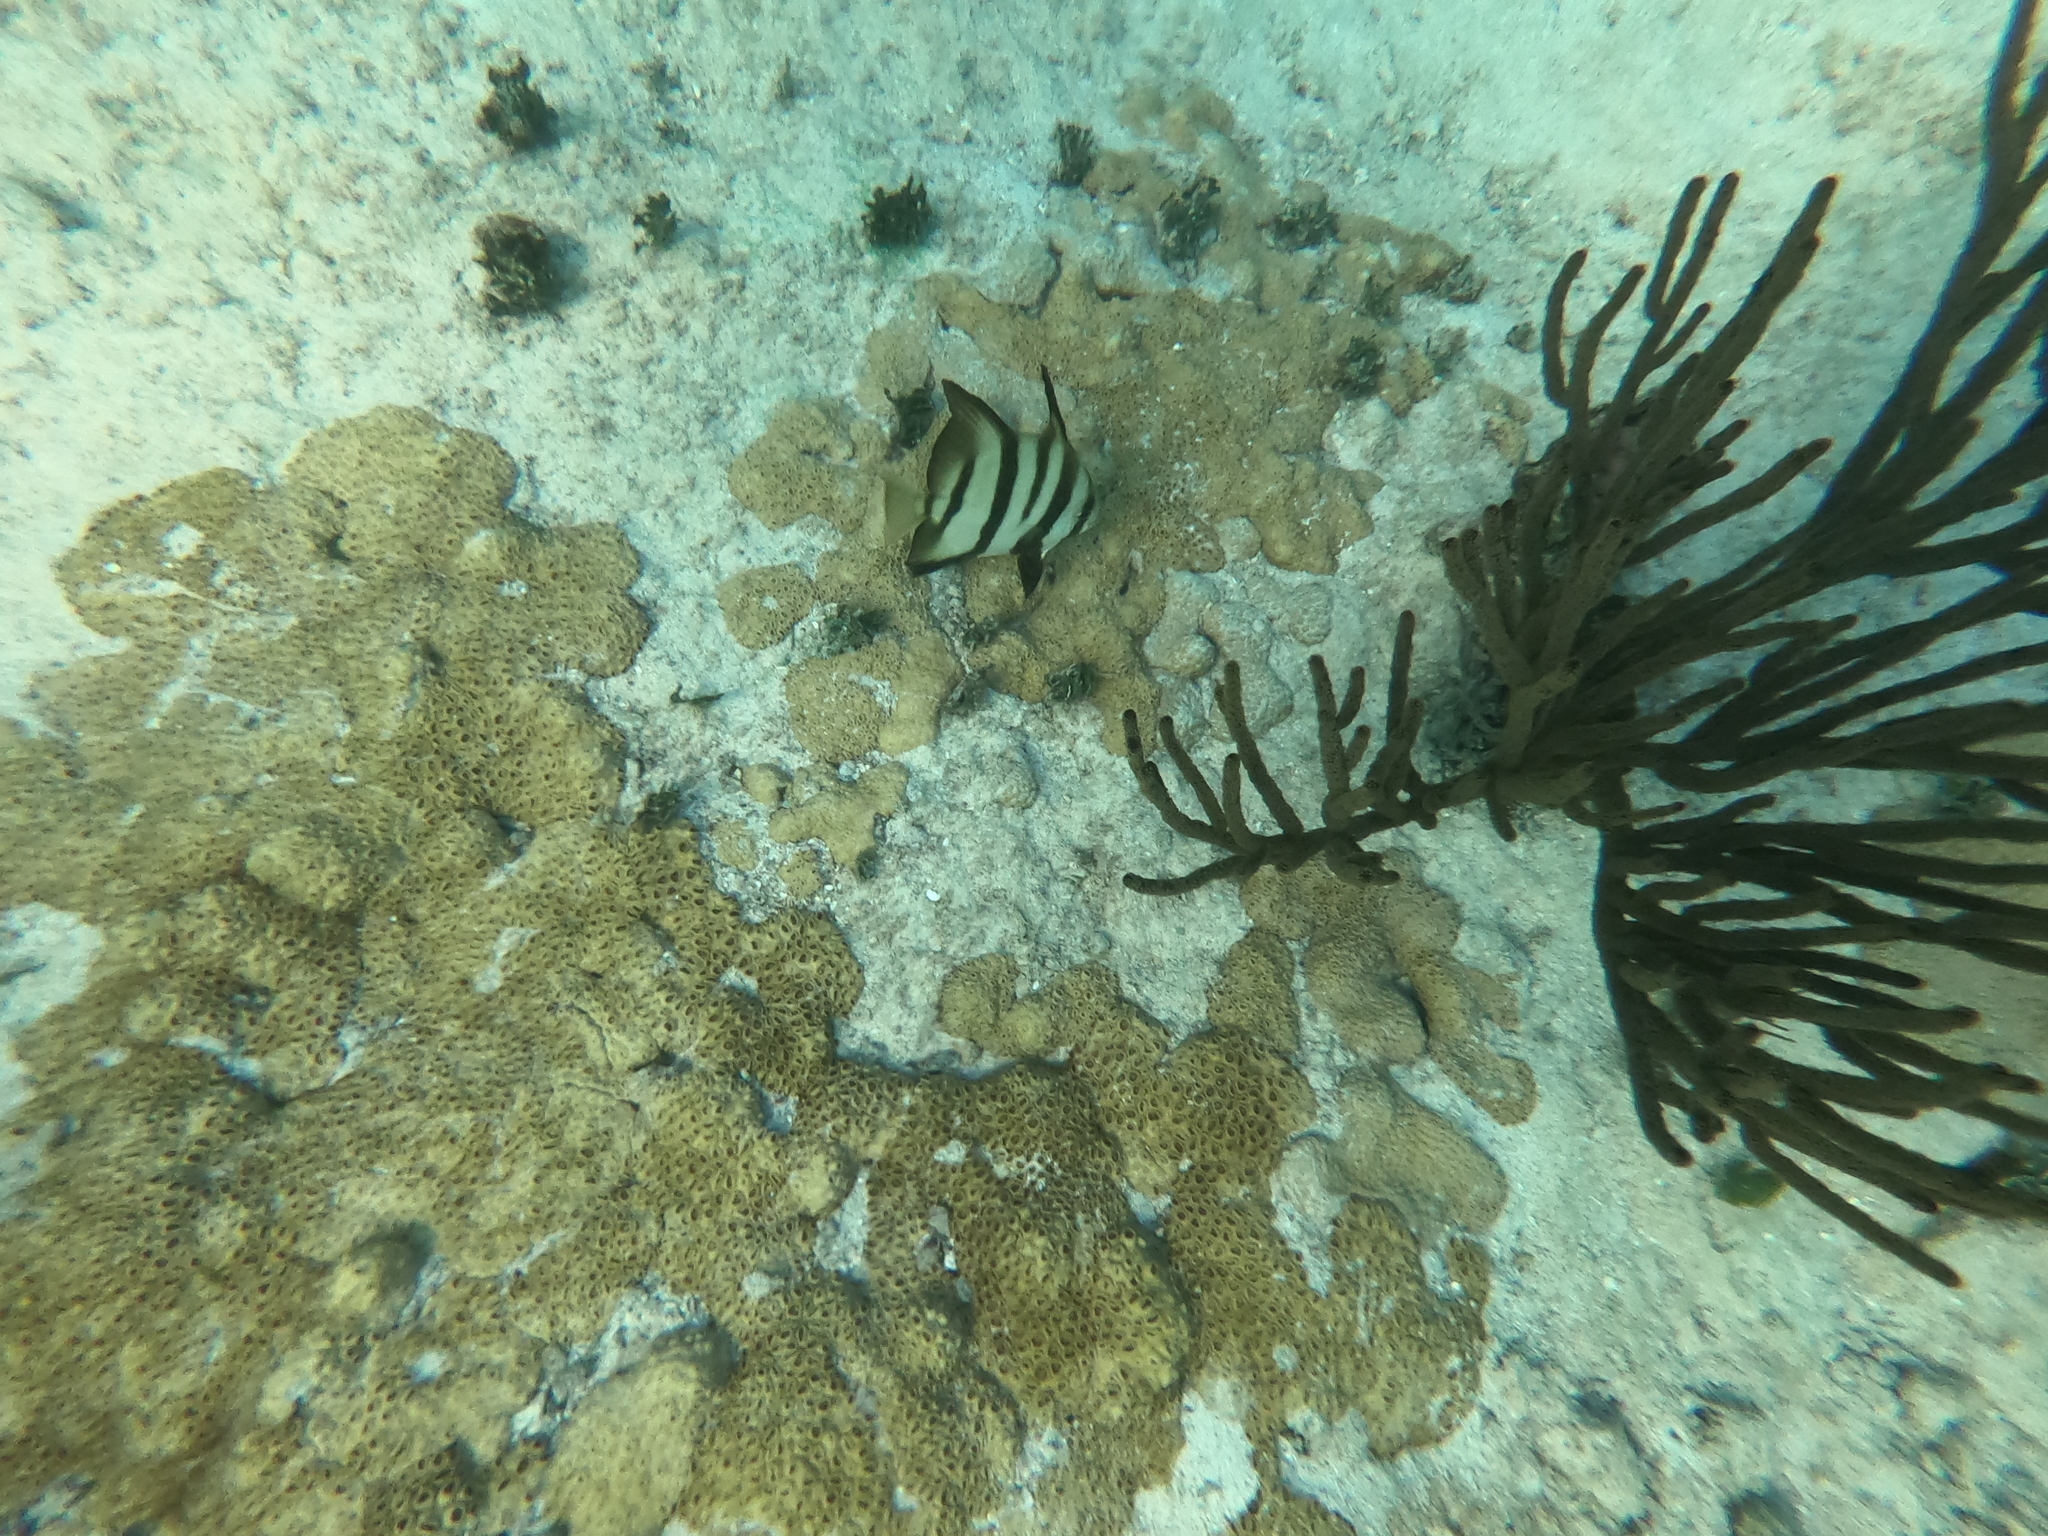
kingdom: Animalia
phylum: Chordata
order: Perciformes
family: Ephippidae
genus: Chaetodipterus
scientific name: Chaetodipterus faber
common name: Ocean cobbler
